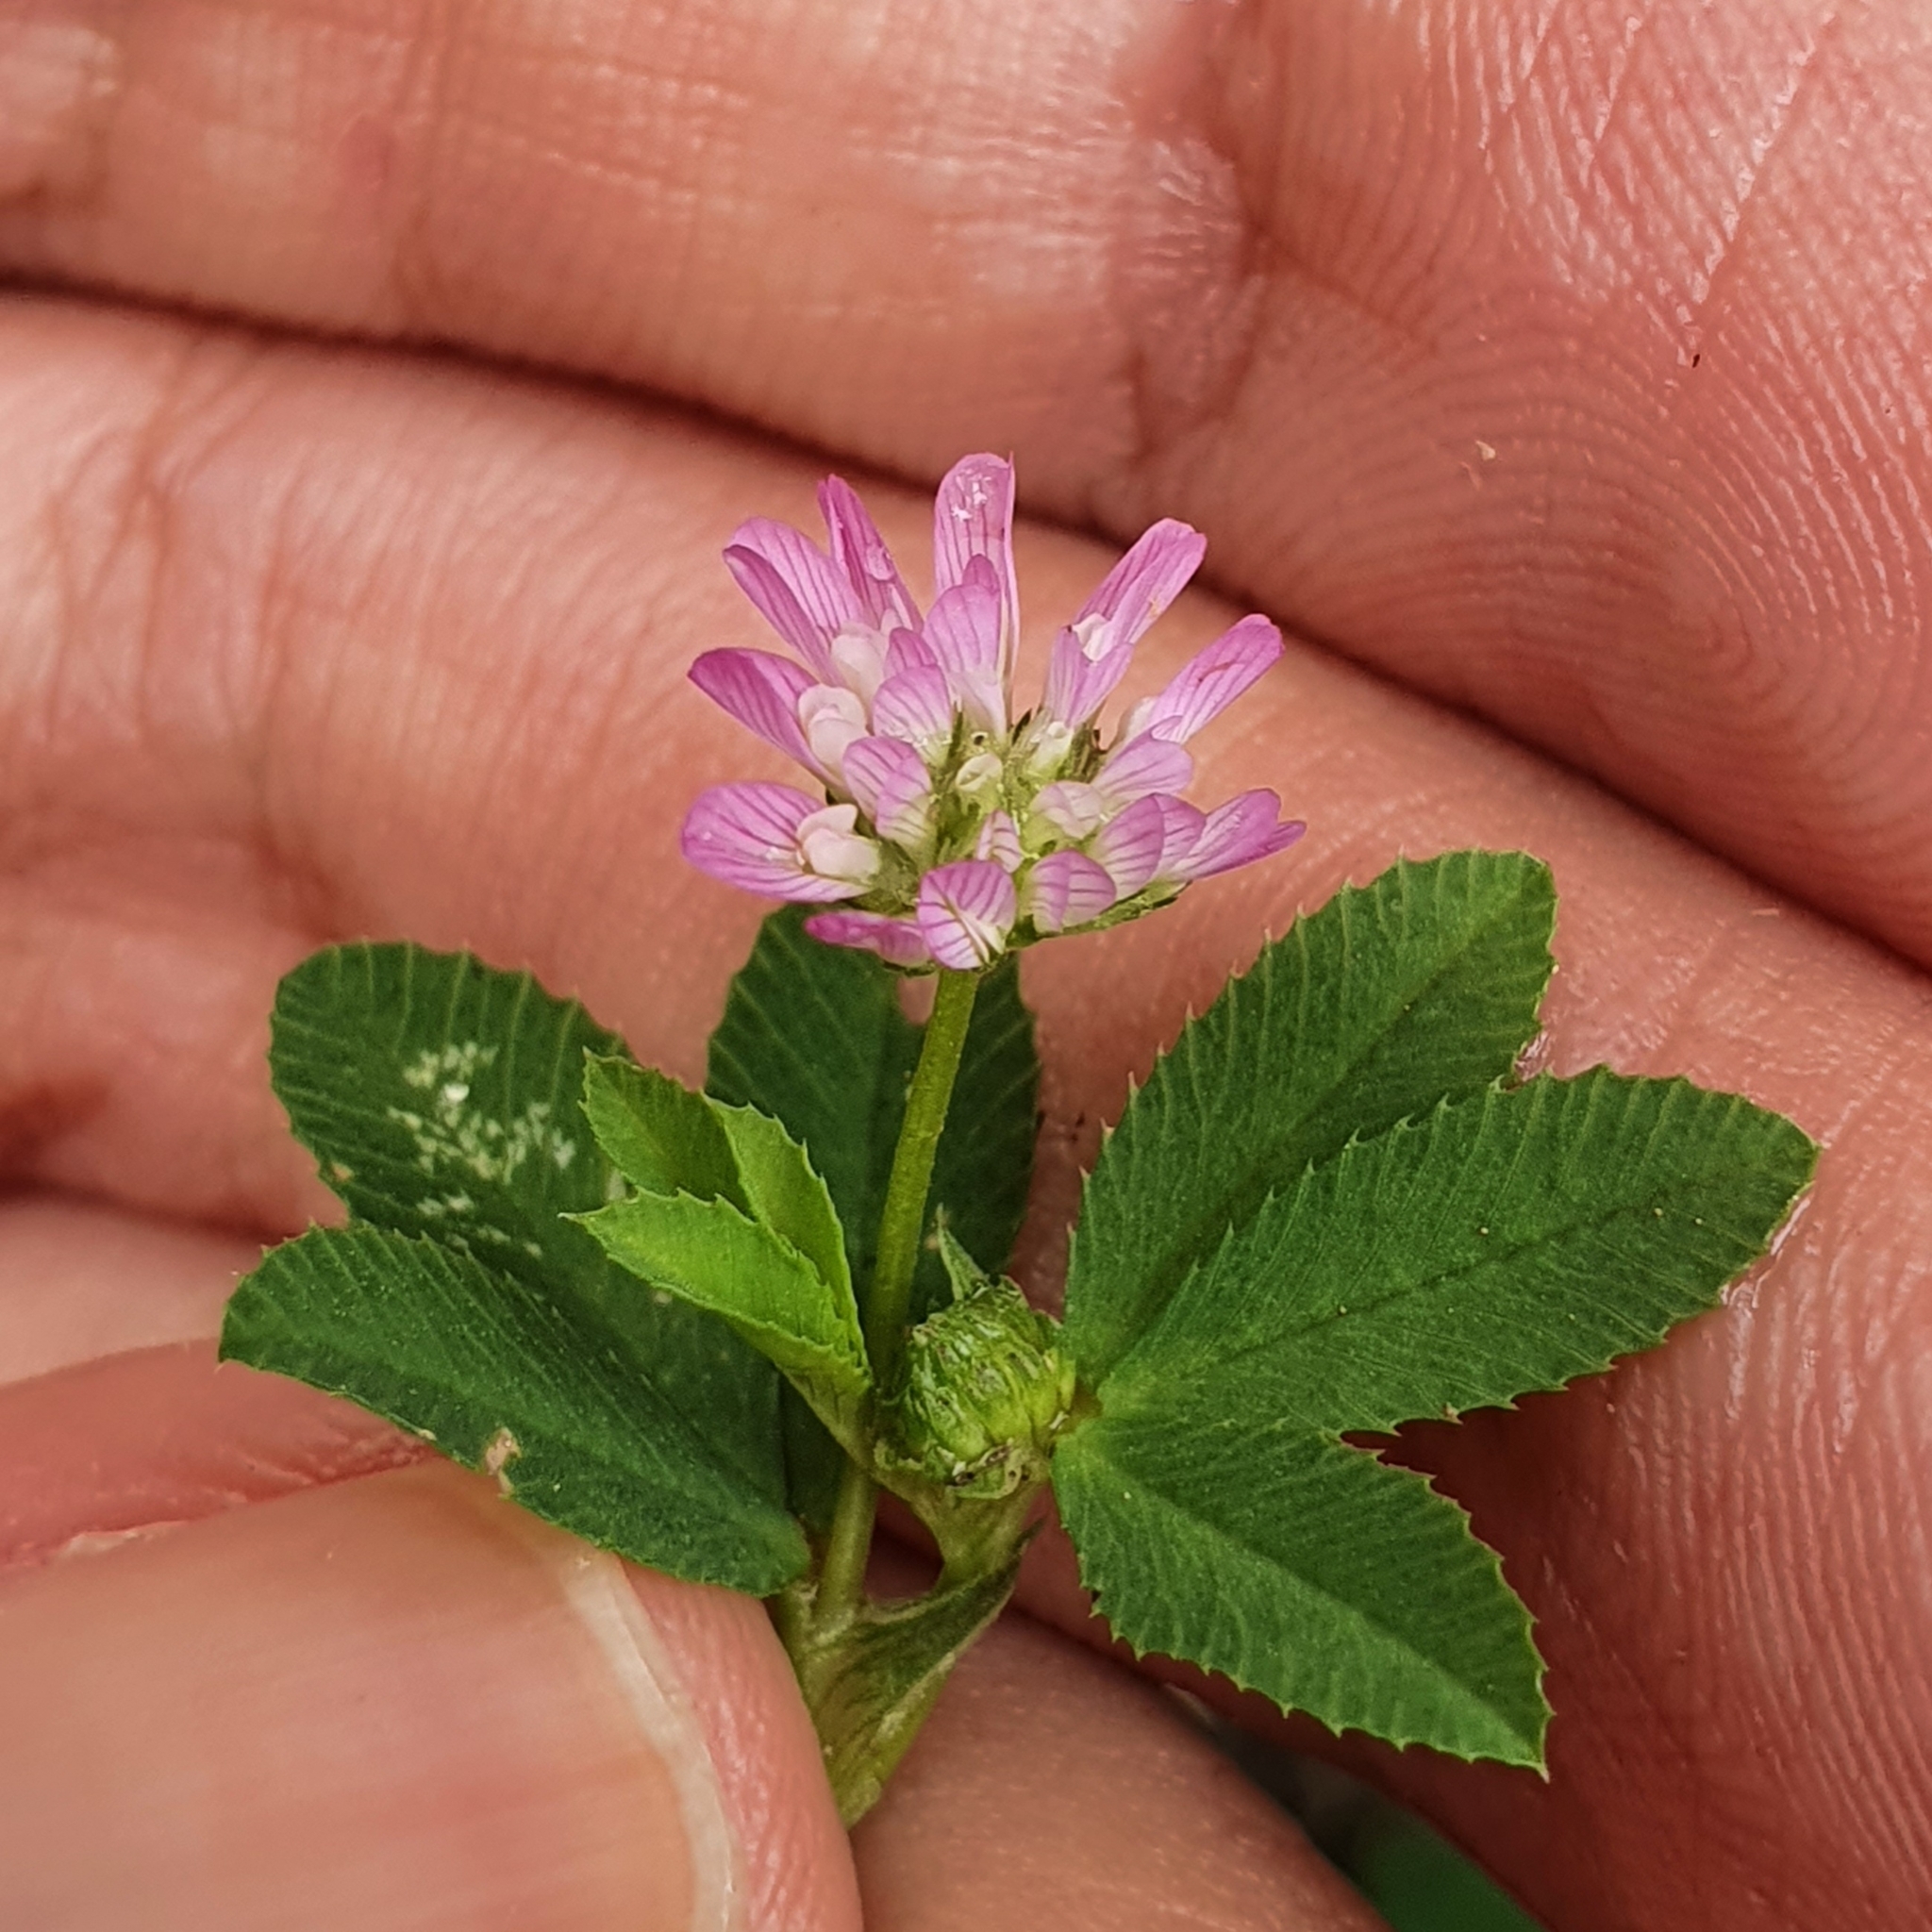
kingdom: Plantae
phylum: Tracheophyta
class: Magnoliopsida
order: Fabales
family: Fabaceae
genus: Trifolium
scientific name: Trifolium resupinatum
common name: Reversed clover
